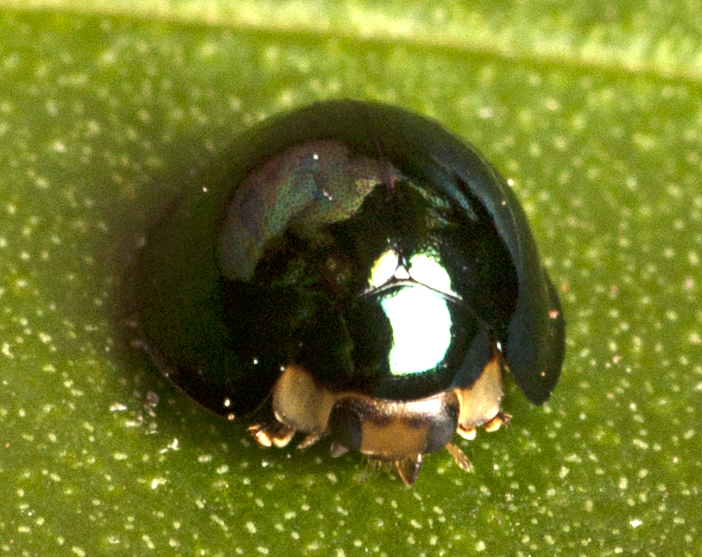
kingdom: Animalia
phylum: Arthropoda
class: Insecta
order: Coleoptera
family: Coccinellidae
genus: Halmus
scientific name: Halmus chalybeus
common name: Steel blue ladybird beetle
